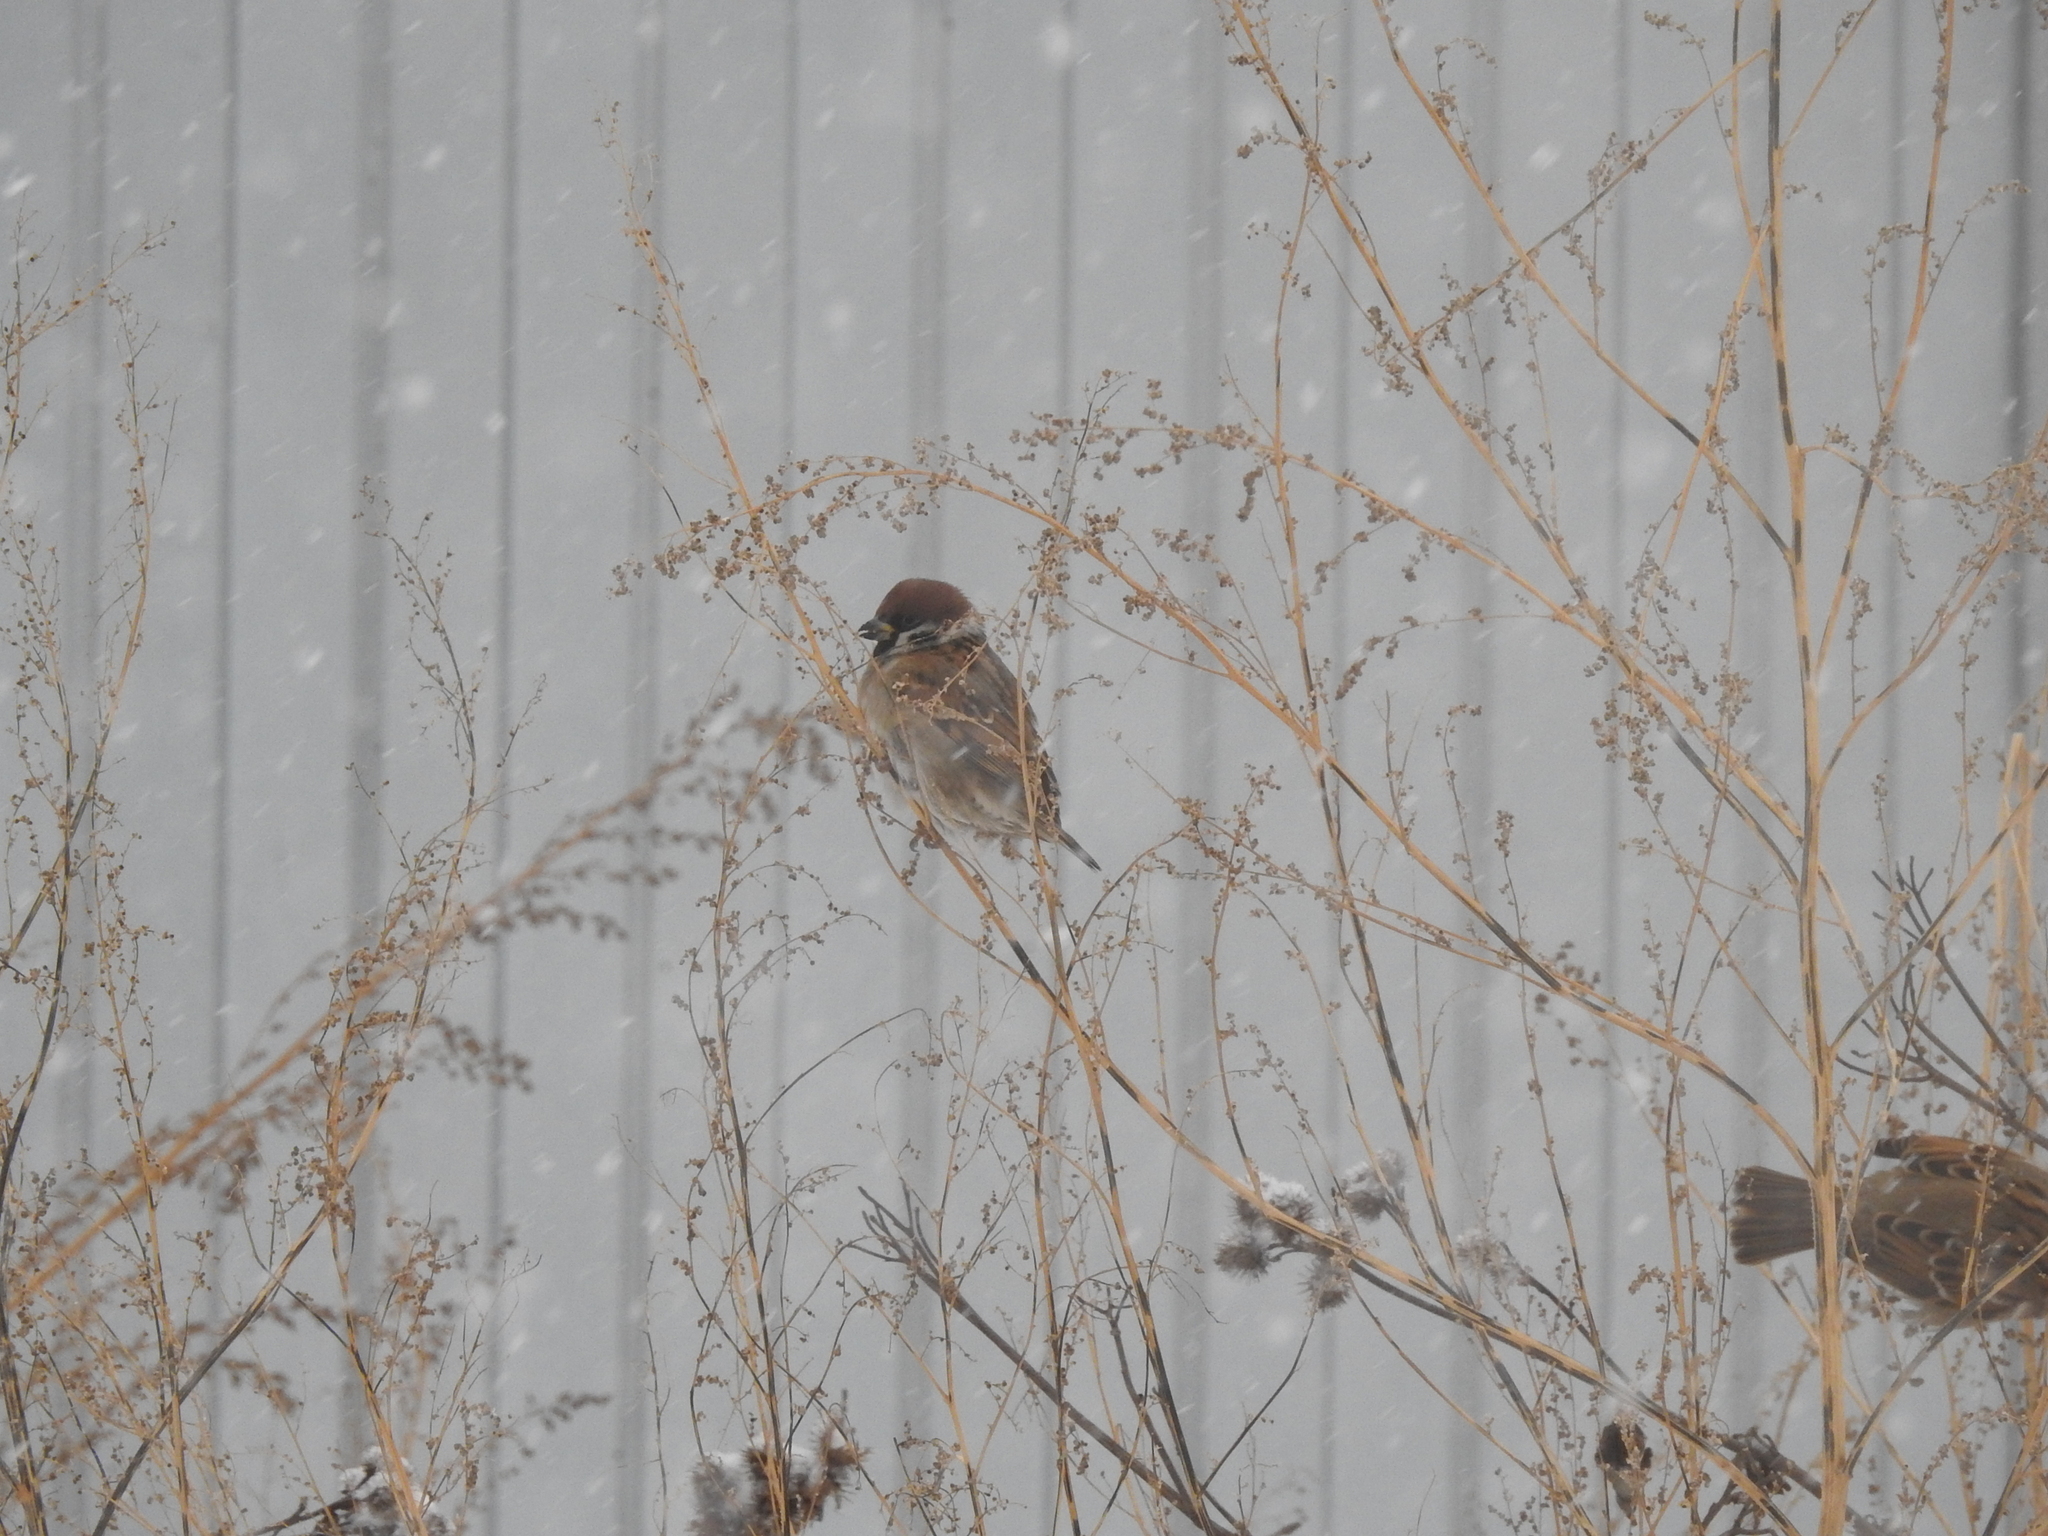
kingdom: Animalia
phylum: Chordata
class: Aves
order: Passeriformes
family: Passeridae
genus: Passer
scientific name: Passer montanus
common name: Eurasian tree sparrow
